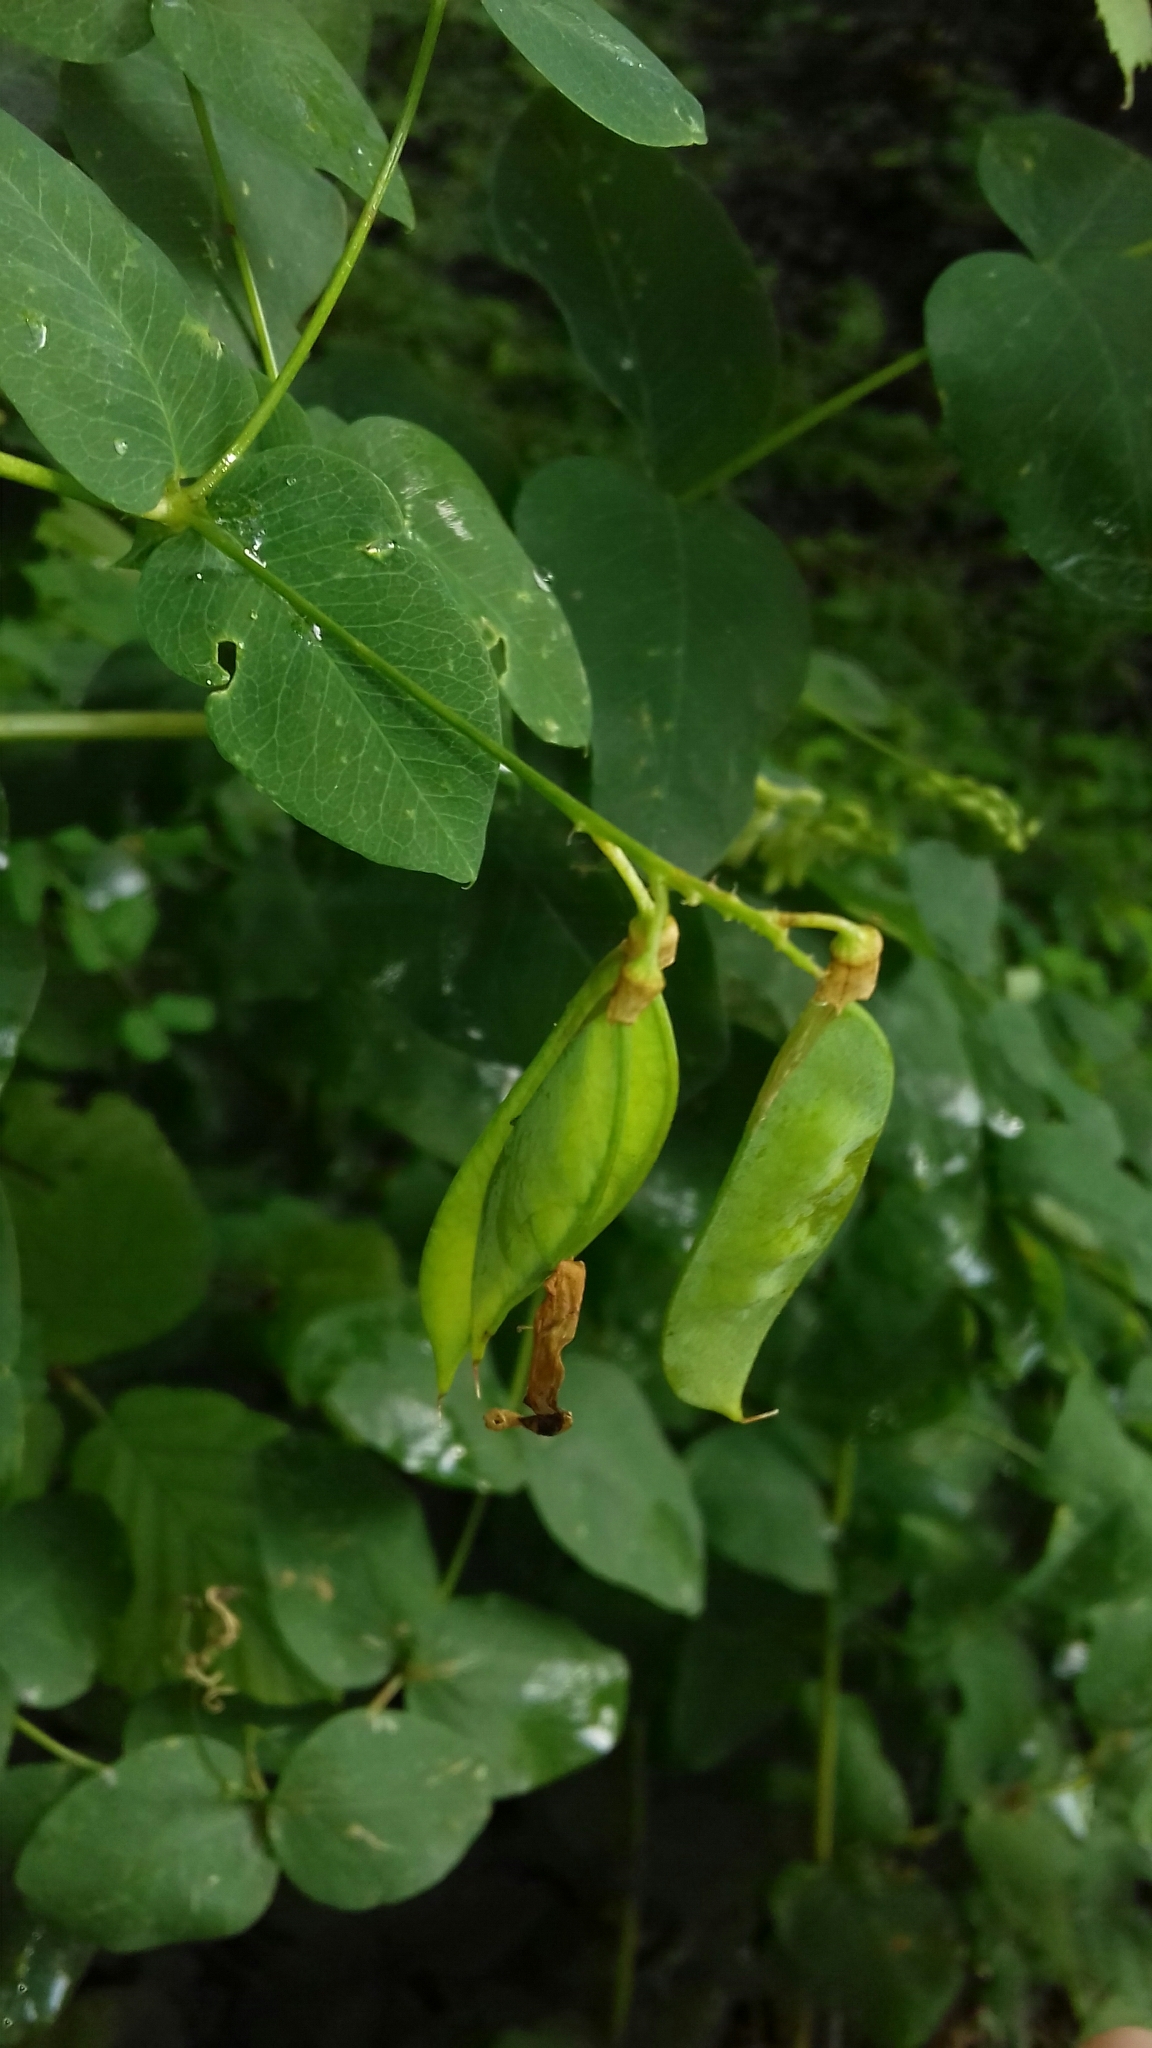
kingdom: Plantae
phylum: Tracheophyta
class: Magnoliopsida
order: Fabales
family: Fabaceae
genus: Vicia
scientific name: Vicia pisiformis
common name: Pale-flower vetch
